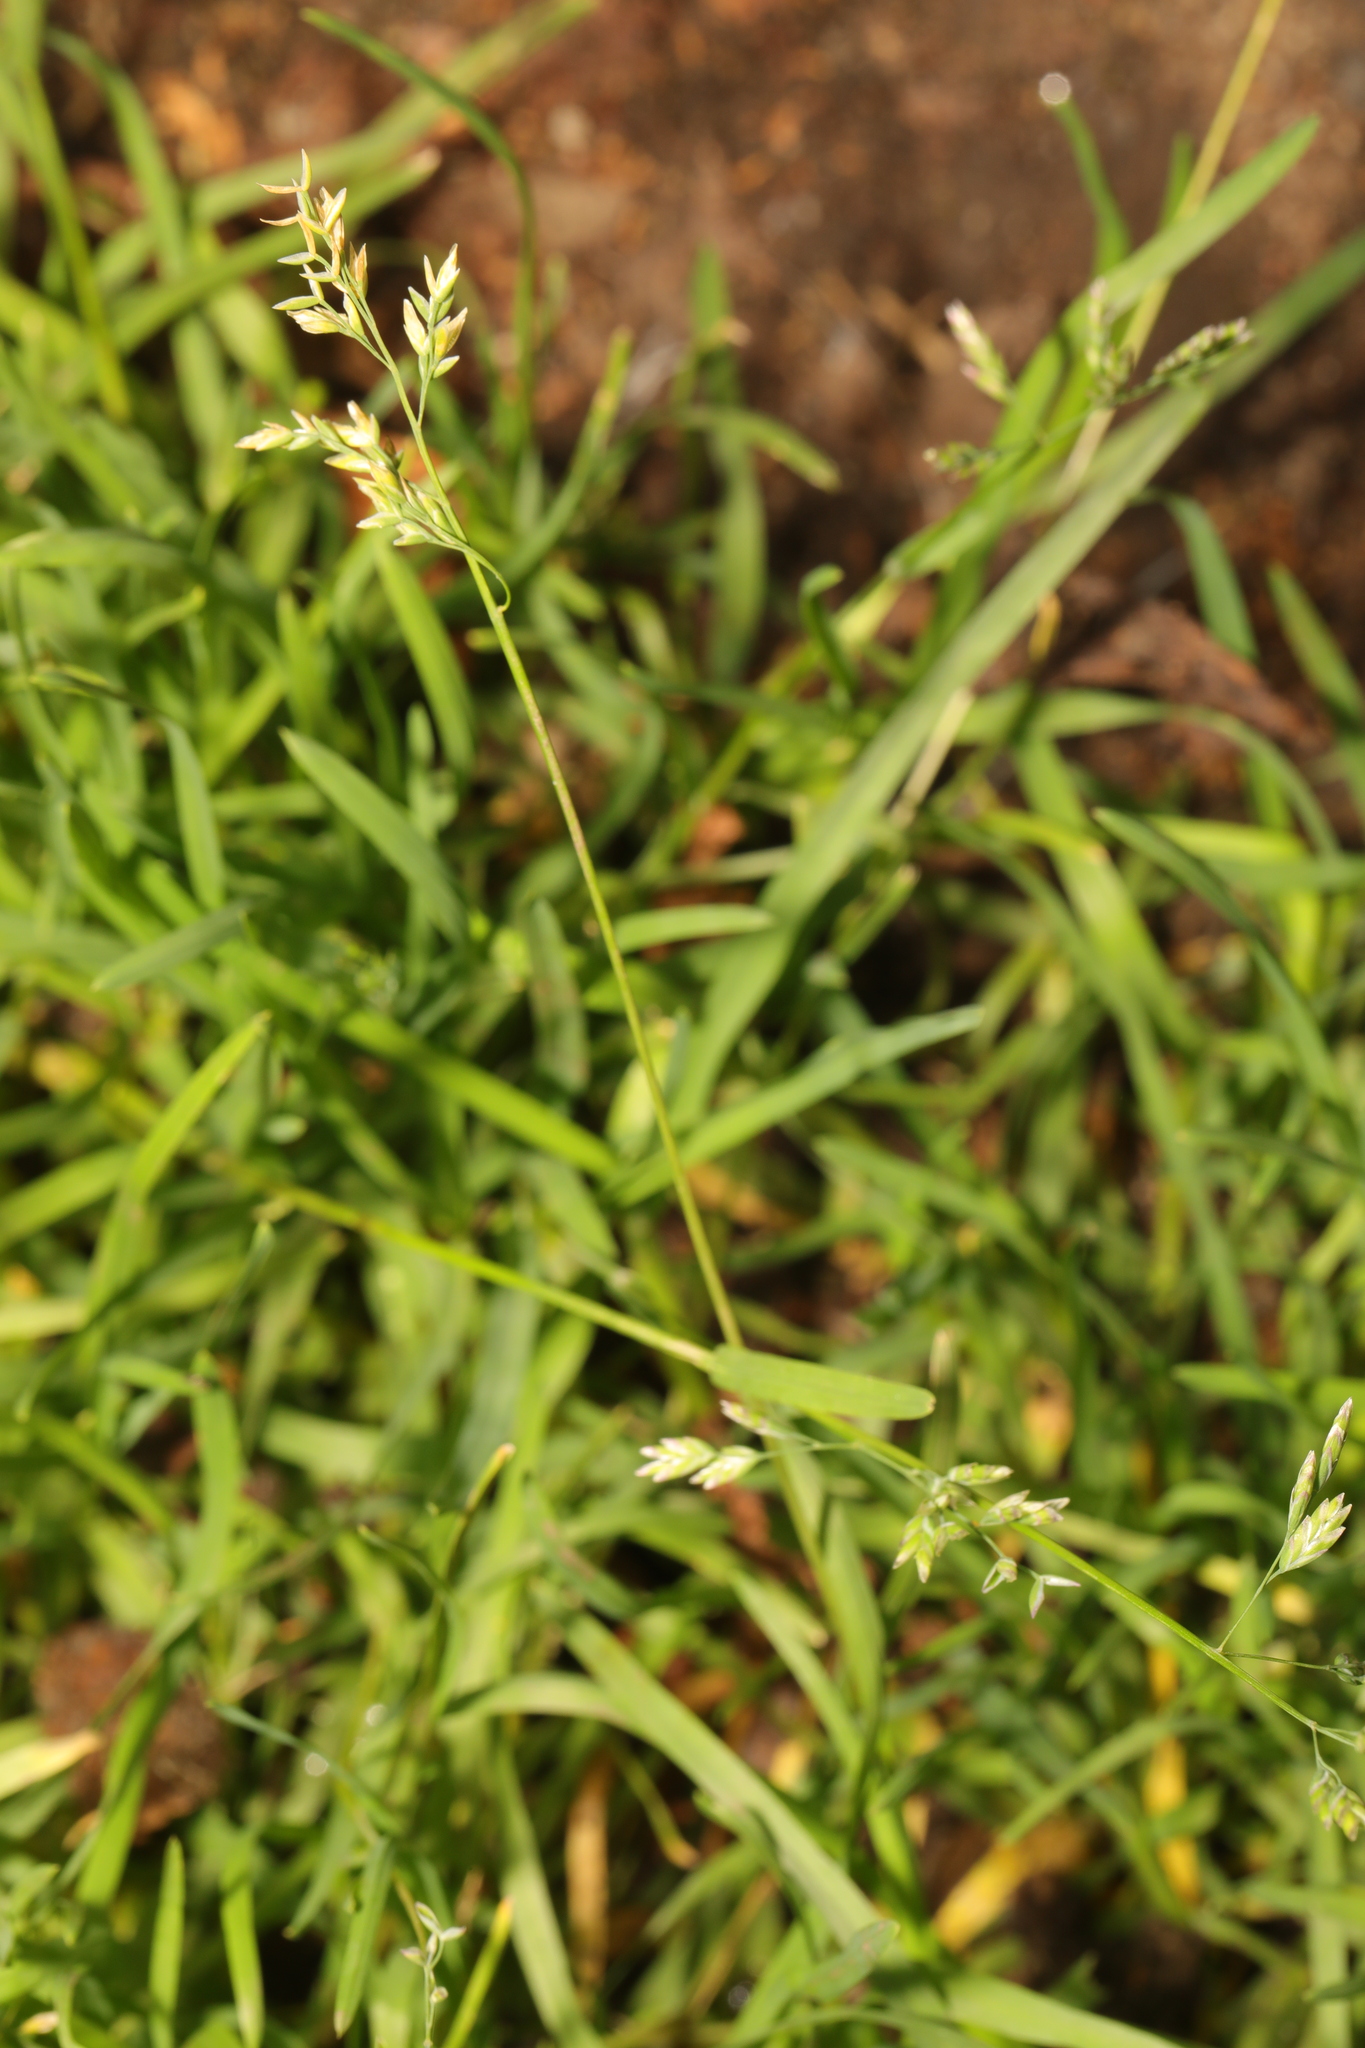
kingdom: Plantae
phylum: Tracheophyta
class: Liliopsida
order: Poales
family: Poaceae
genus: Poa
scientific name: Poa annua
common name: Annual bluegrass
